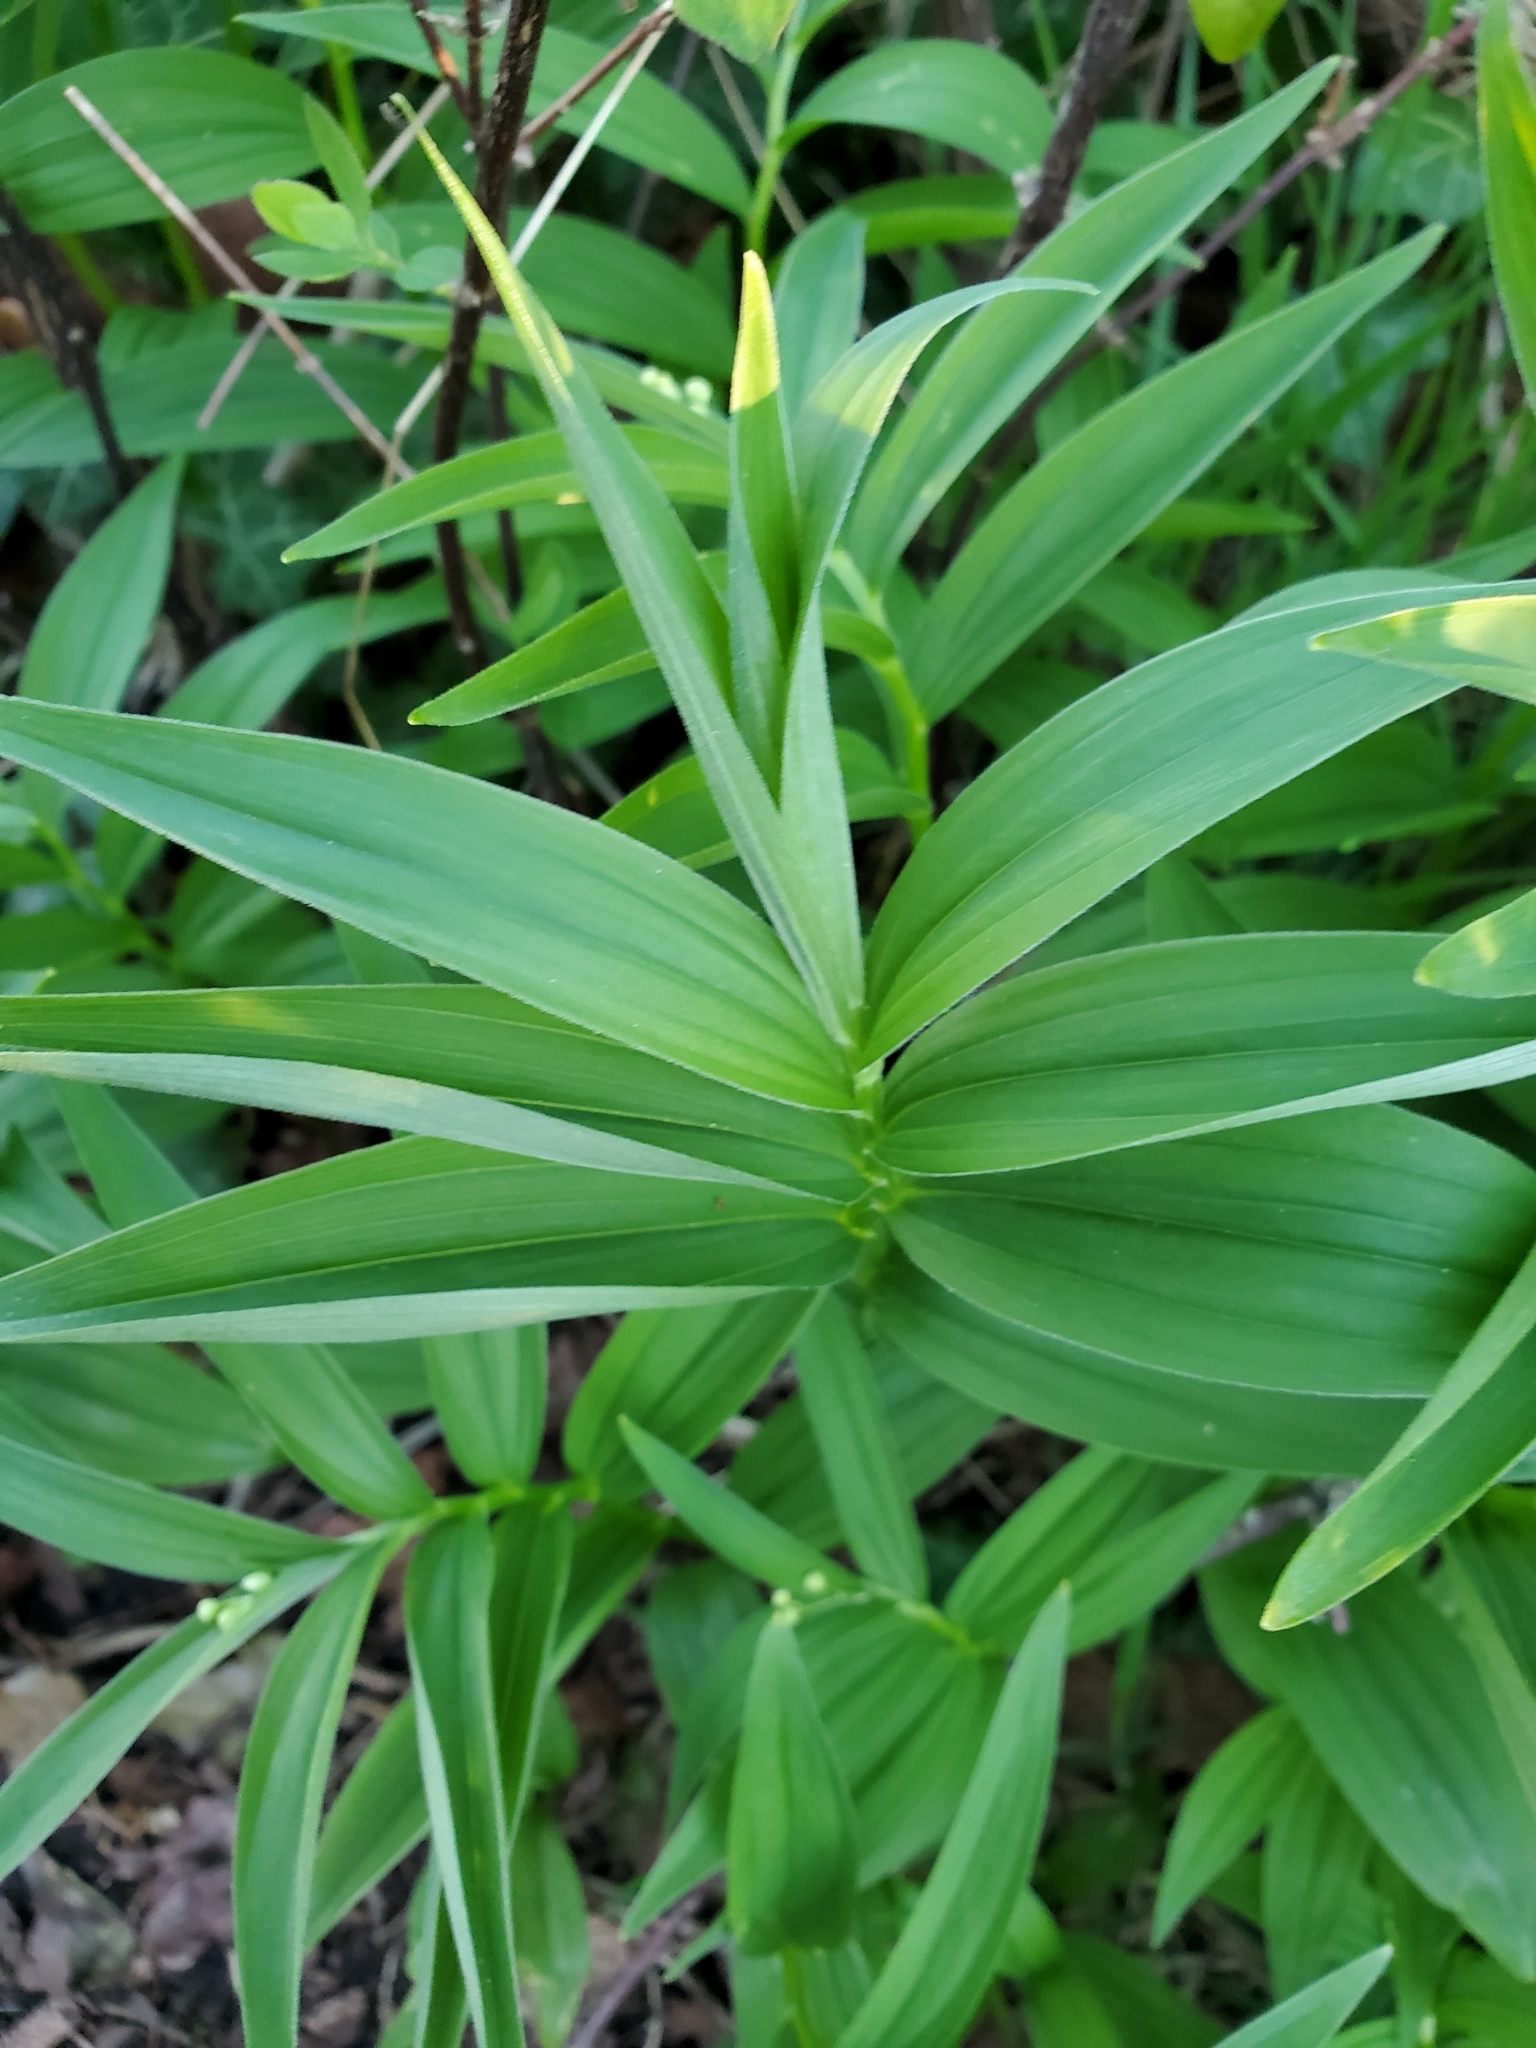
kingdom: Plantae
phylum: Tracheophyta
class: Liliopsida
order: Asparagales
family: Asparagaceae
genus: Maianthemum
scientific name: Maianthemum stellatum
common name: Little false solomon's seal
